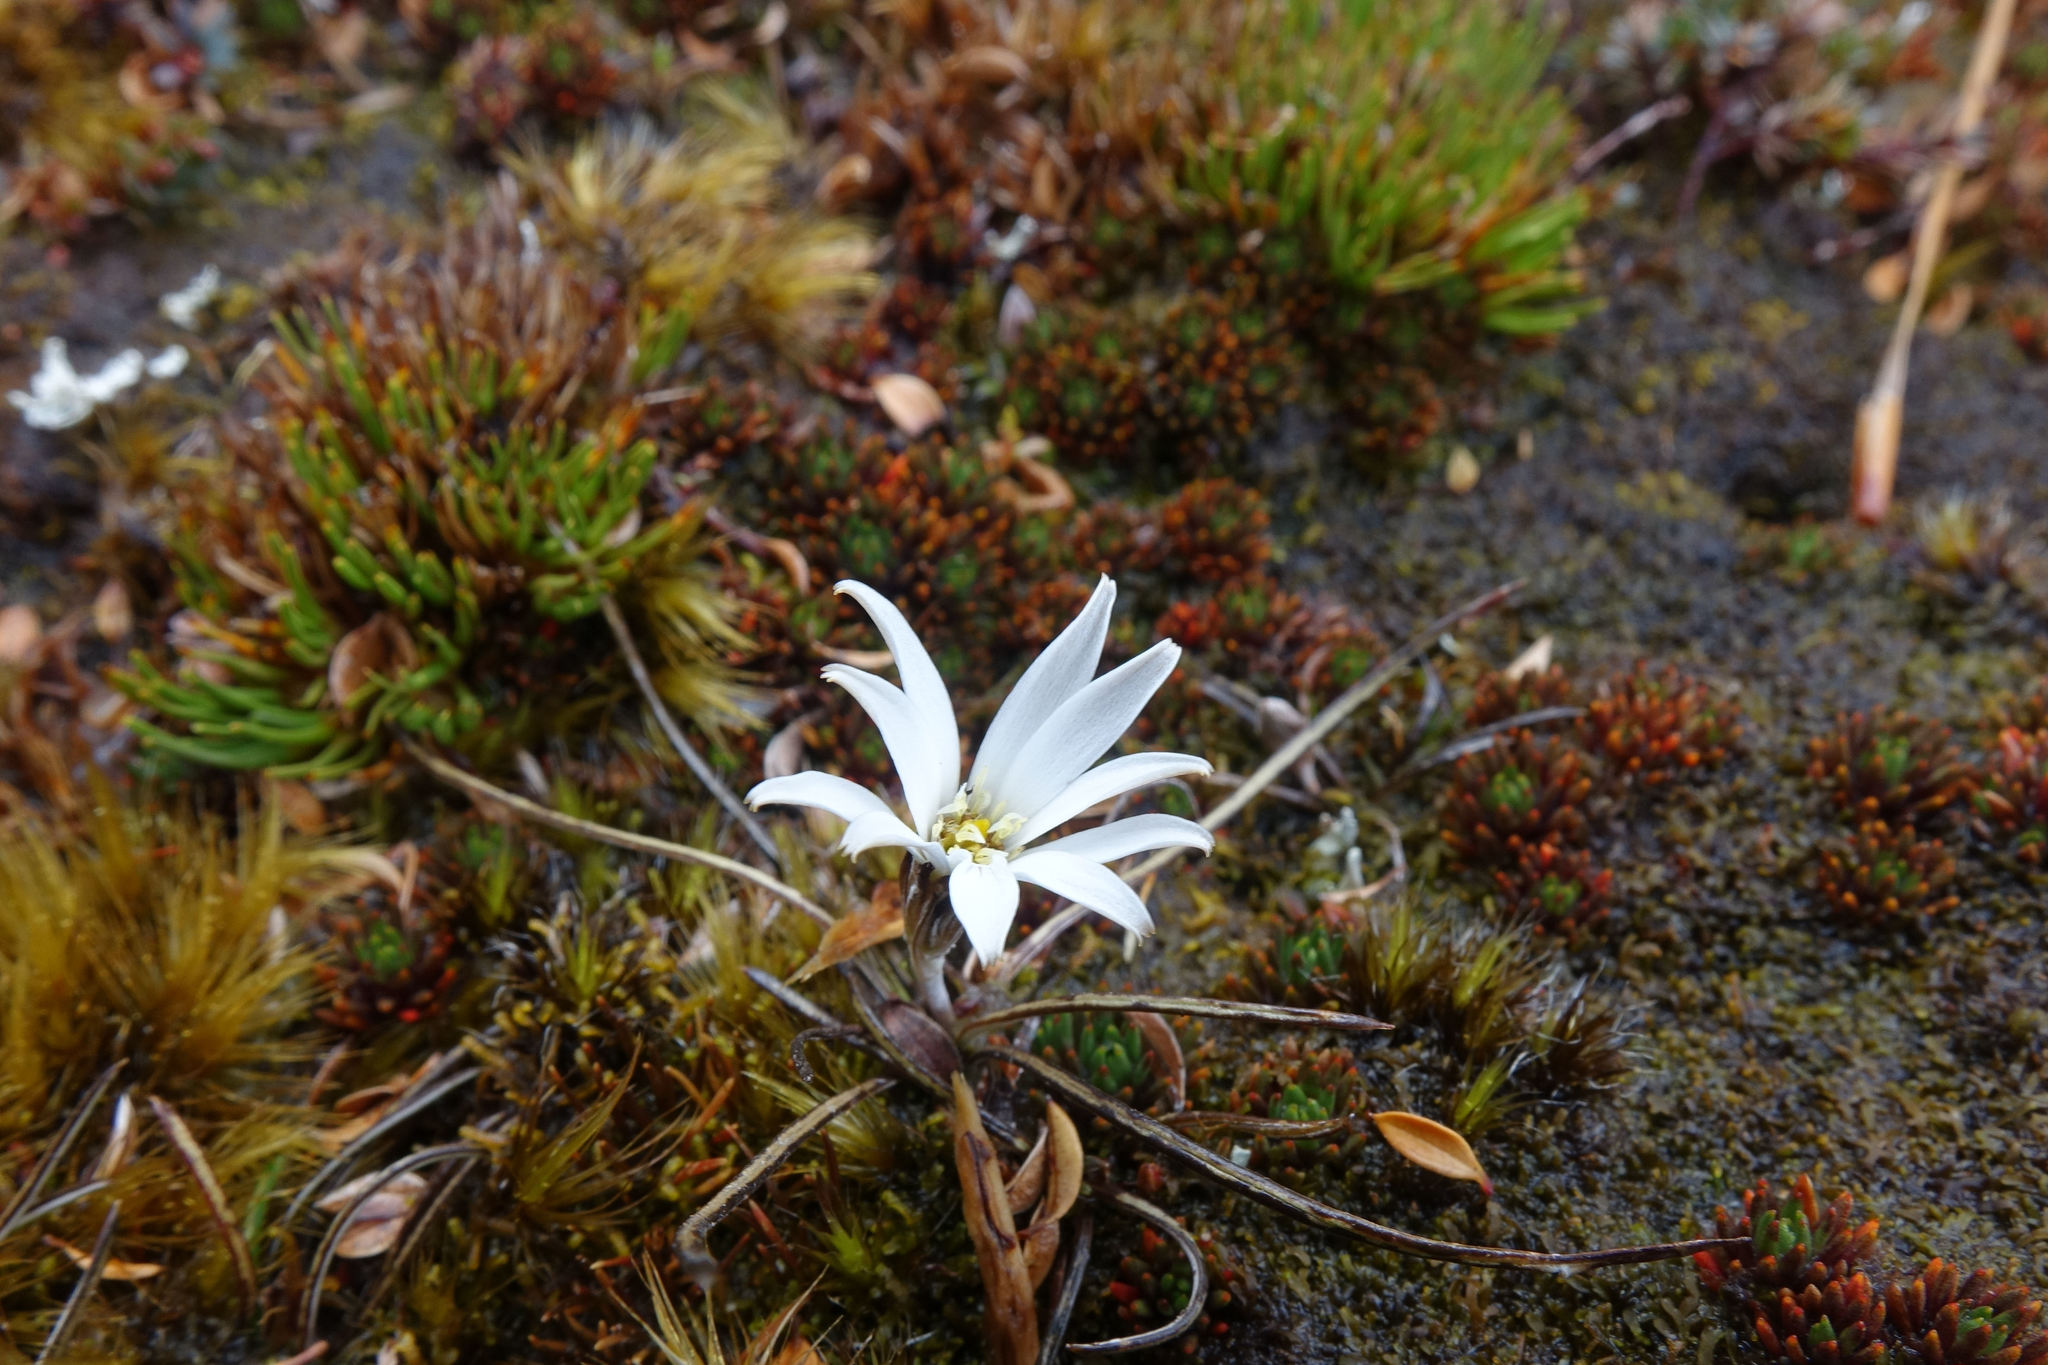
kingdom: Plantae
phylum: Tracheophyta
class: Magnoliopsida
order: Asterales
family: Asteraceae
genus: Celmisia
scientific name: Celmisia alpina
